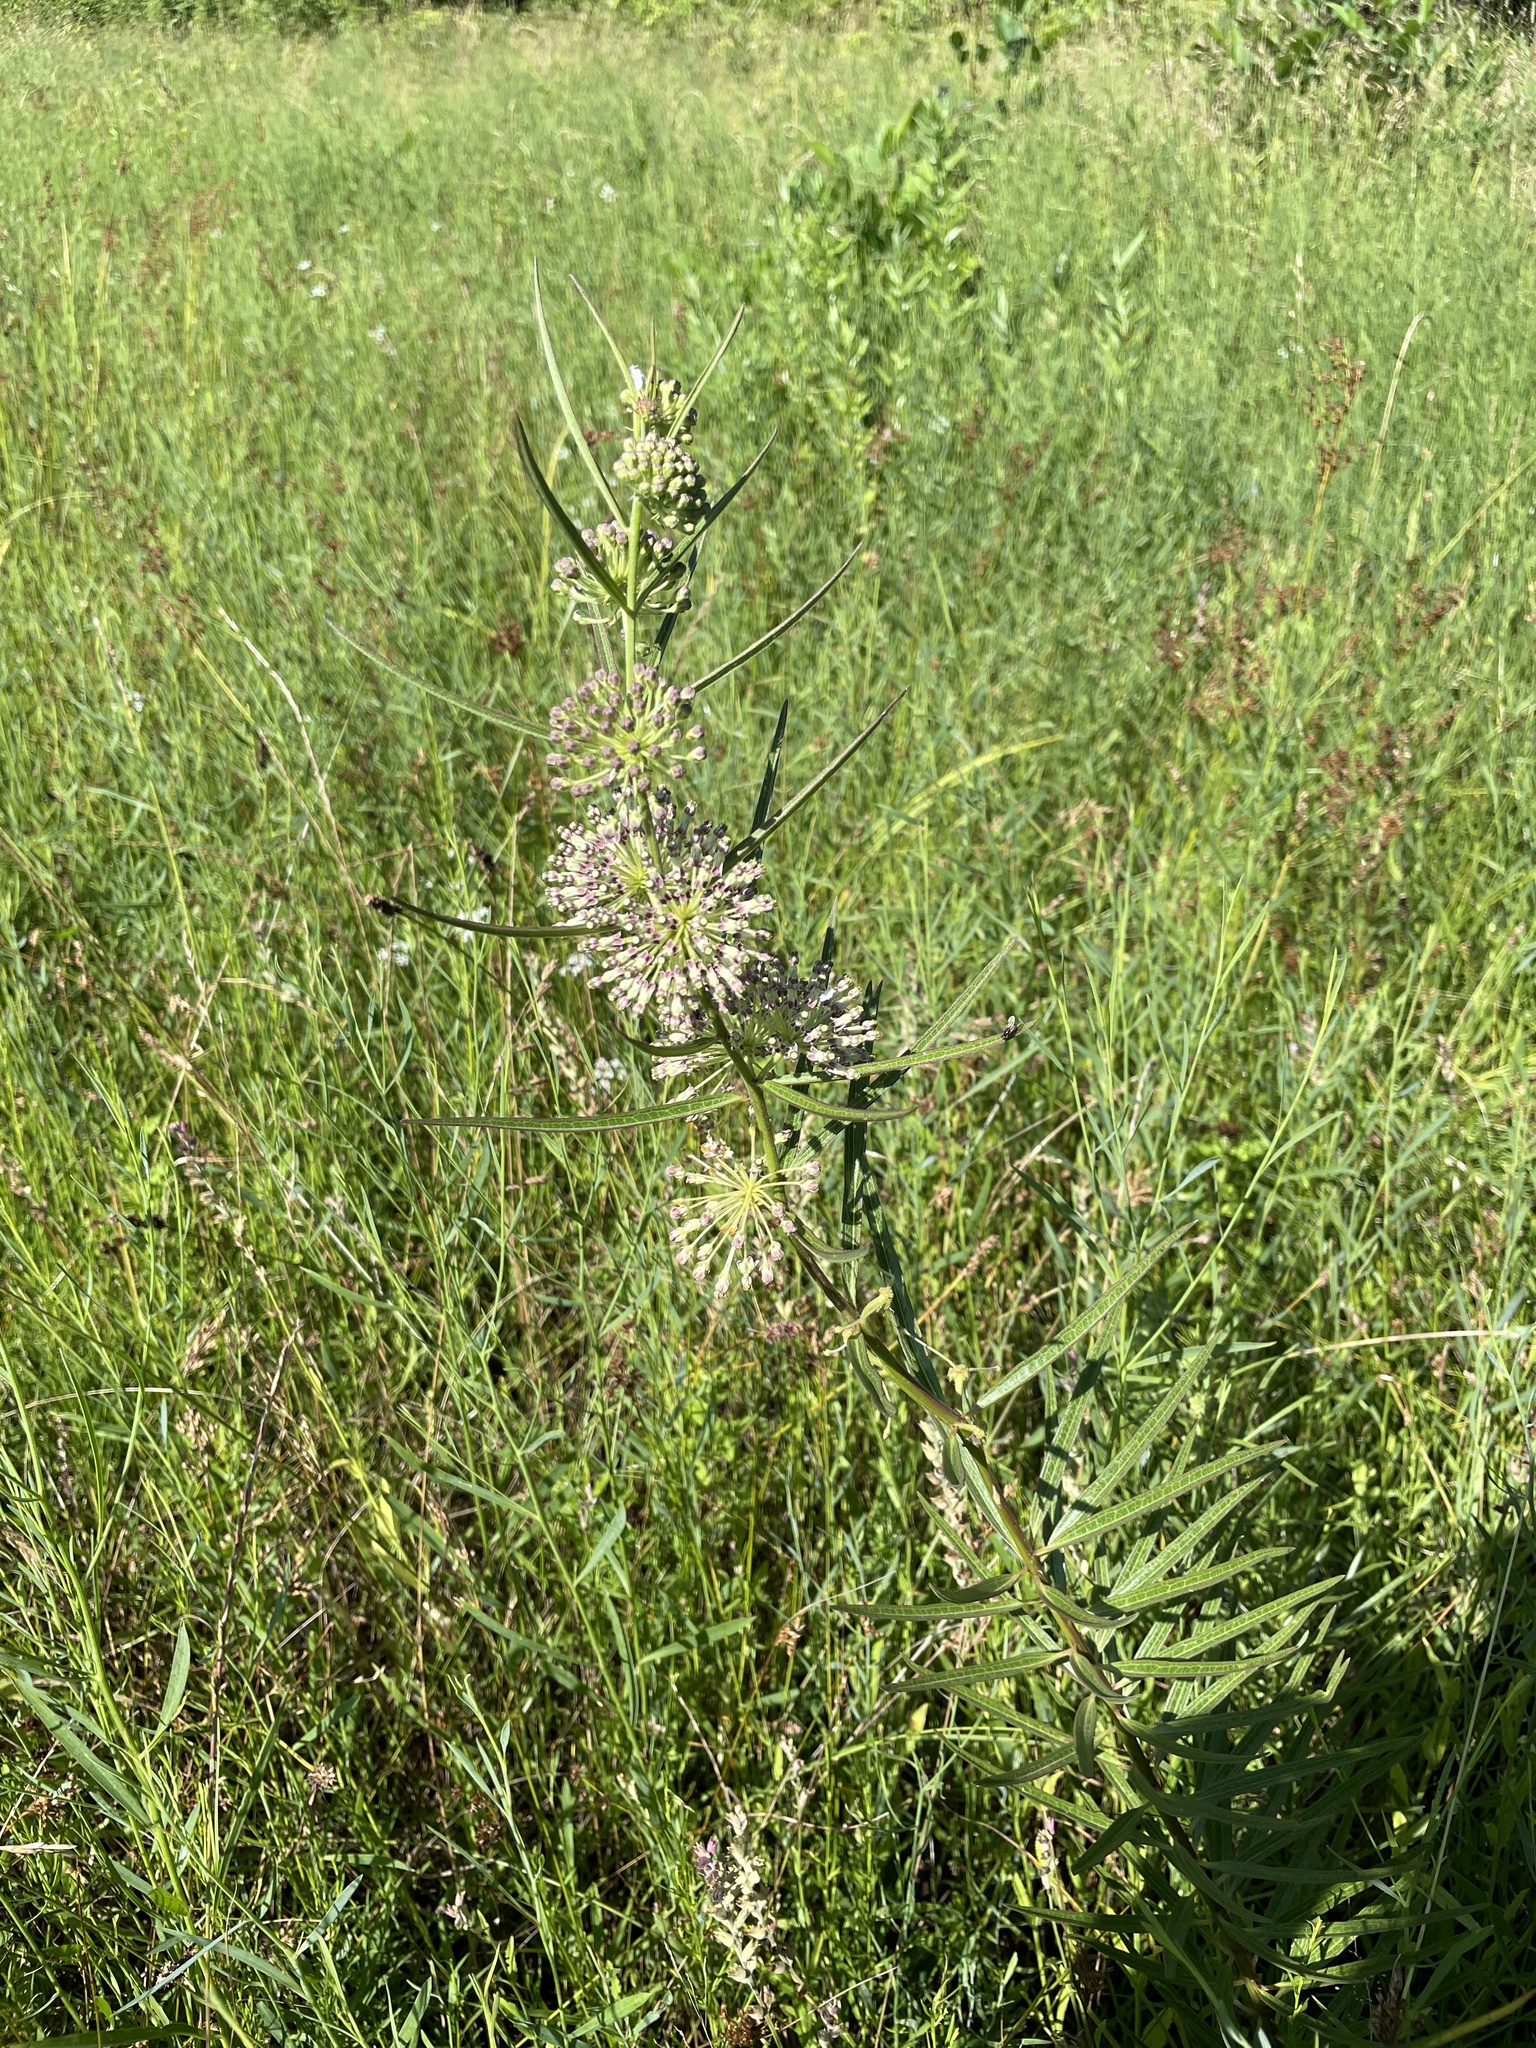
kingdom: Plantae
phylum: Tracheophyta
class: Magnoliopsida
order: Gentianales
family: Apocynaceae
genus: Asclepias
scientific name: Asclepias hirtella
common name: Prairie milkweed
